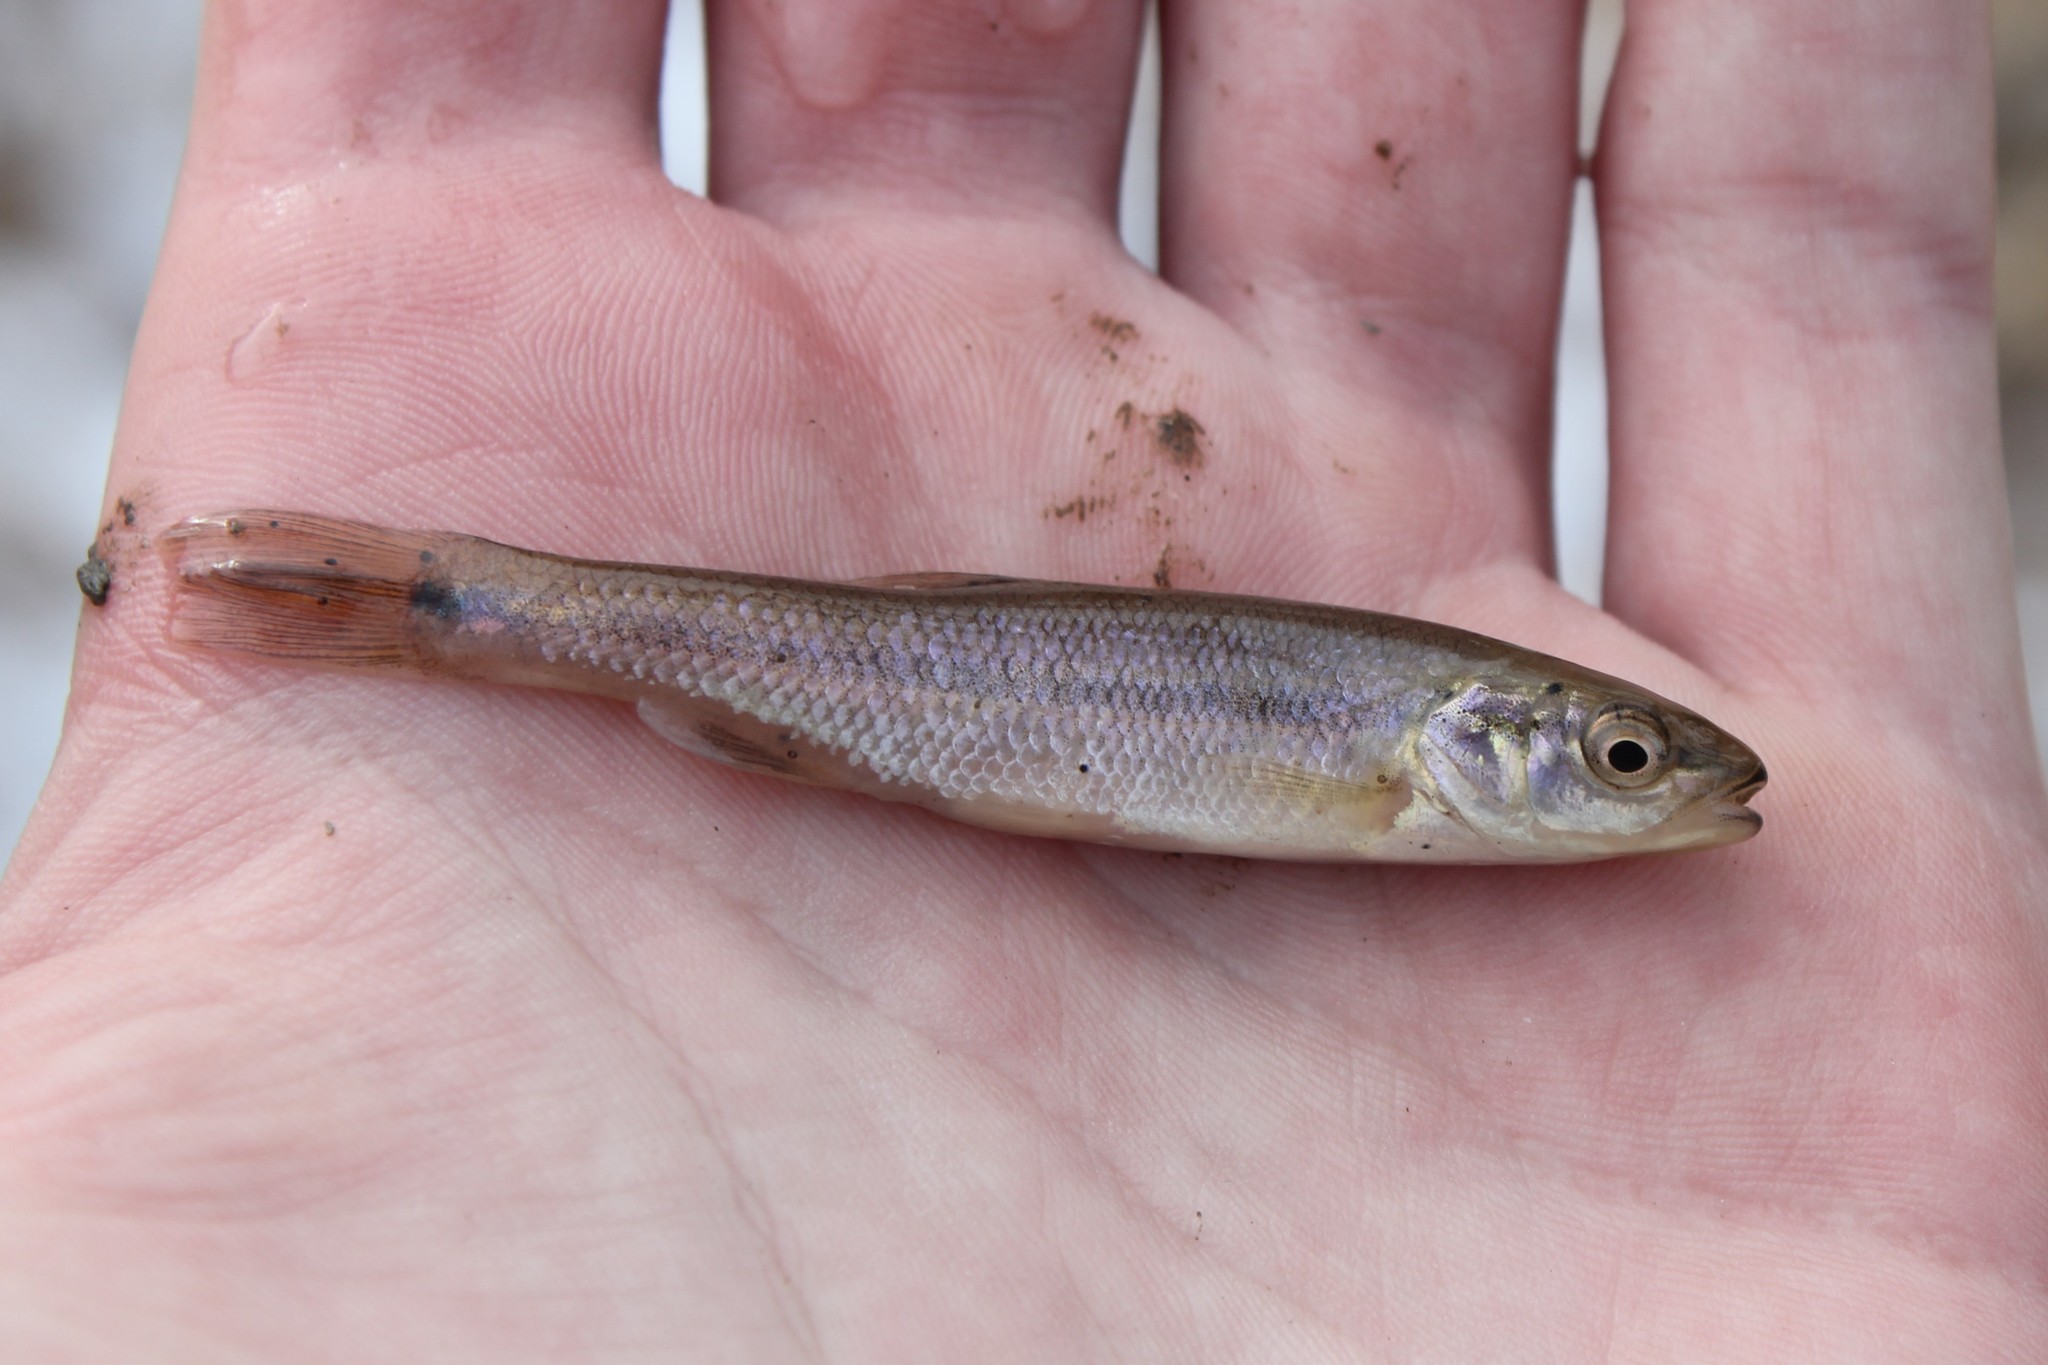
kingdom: Animalia
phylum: Chordata
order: Cypriniformes
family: Cyprinidae
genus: Semotilus
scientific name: Semotilus atromaculatus
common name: Creek chub
